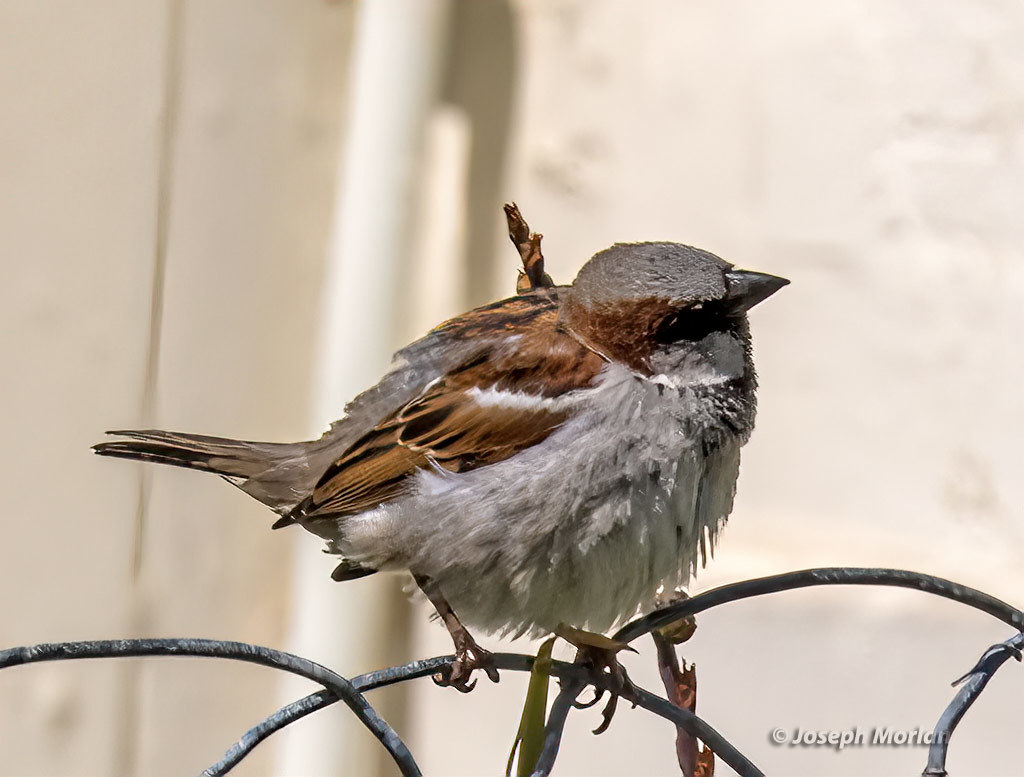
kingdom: Animalia
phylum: Chordata
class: Aves
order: Passeriformes
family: Passeridae
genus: Passer
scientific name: Passer domesticus
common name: House sparrow
